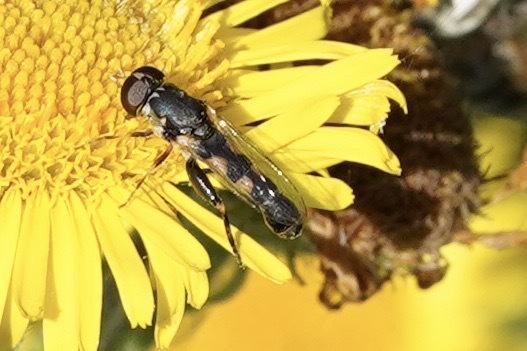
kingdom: Animalia
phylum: Arthropoda
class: Insecta
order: Diptera
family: Syrphidae
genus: Syritta
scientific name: Syritta pipiens
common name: Hover fly
